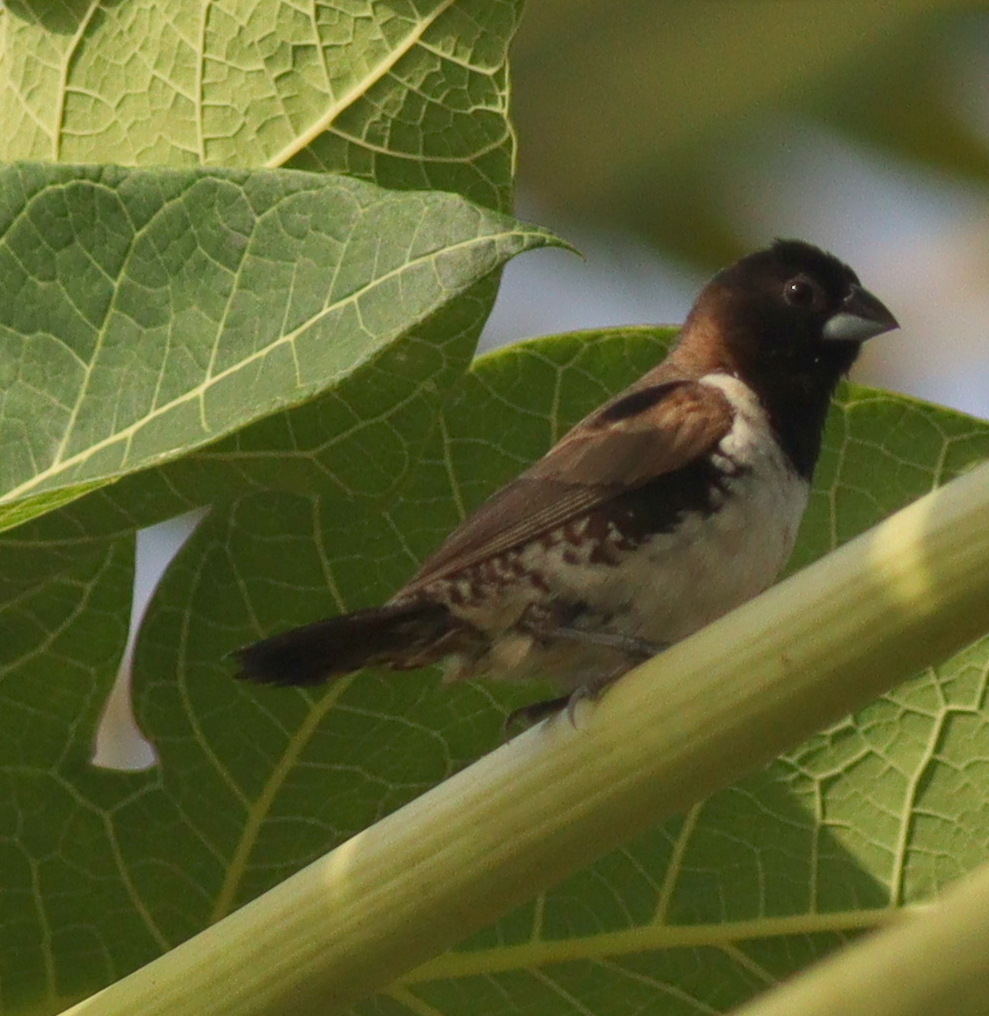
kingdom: Animalia
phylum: Chordata
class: Aves
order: Passeriformes
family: Estrildidae
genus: Lonchura
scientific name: Lonchura cucullata
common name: Bronze mannikin
